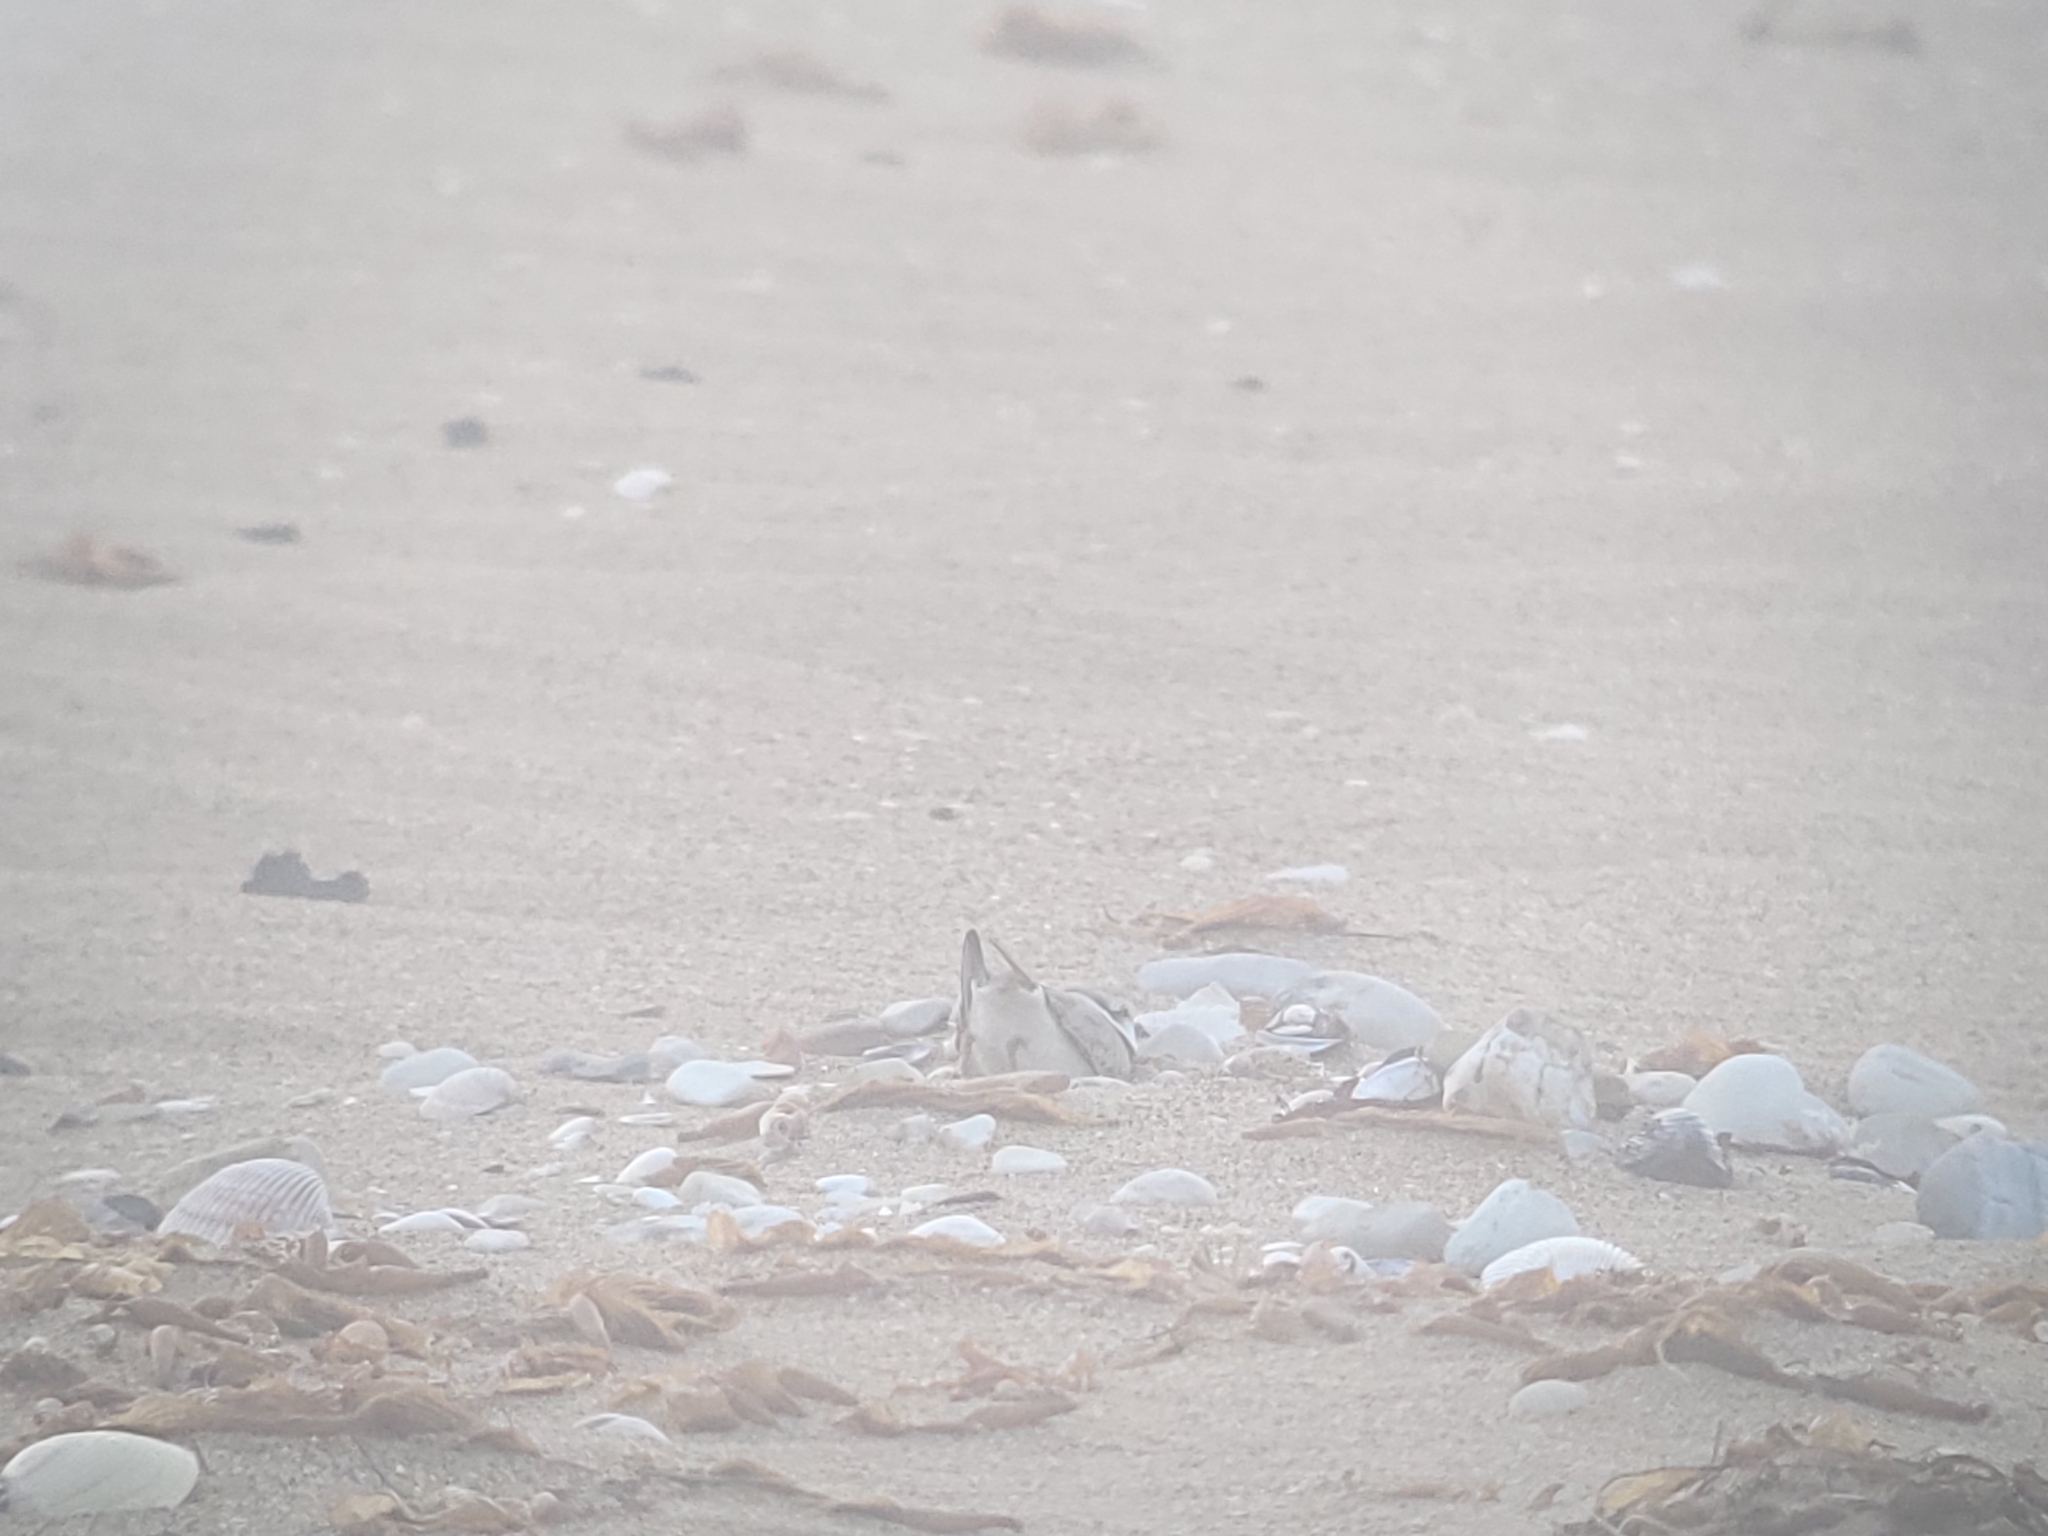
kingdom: Animalia
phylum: Chordata
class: Aves
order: Charadriiformes
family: Charadriidae
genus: Anarhynchus
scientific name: Anarhynchus
